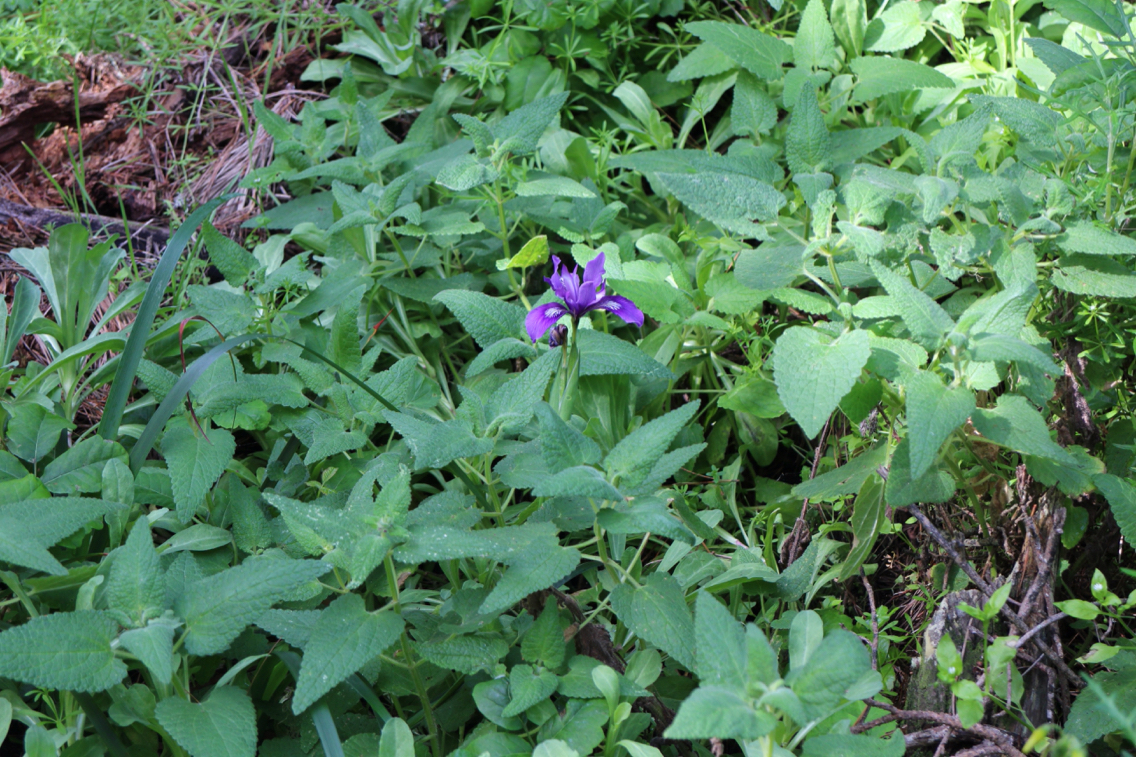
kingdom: Plantae
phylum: Tracheophyta
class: Liliopsida
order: Asparagales
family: Iridaceae
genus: Iris
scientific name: Iris douglasiana
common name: Marin iris
